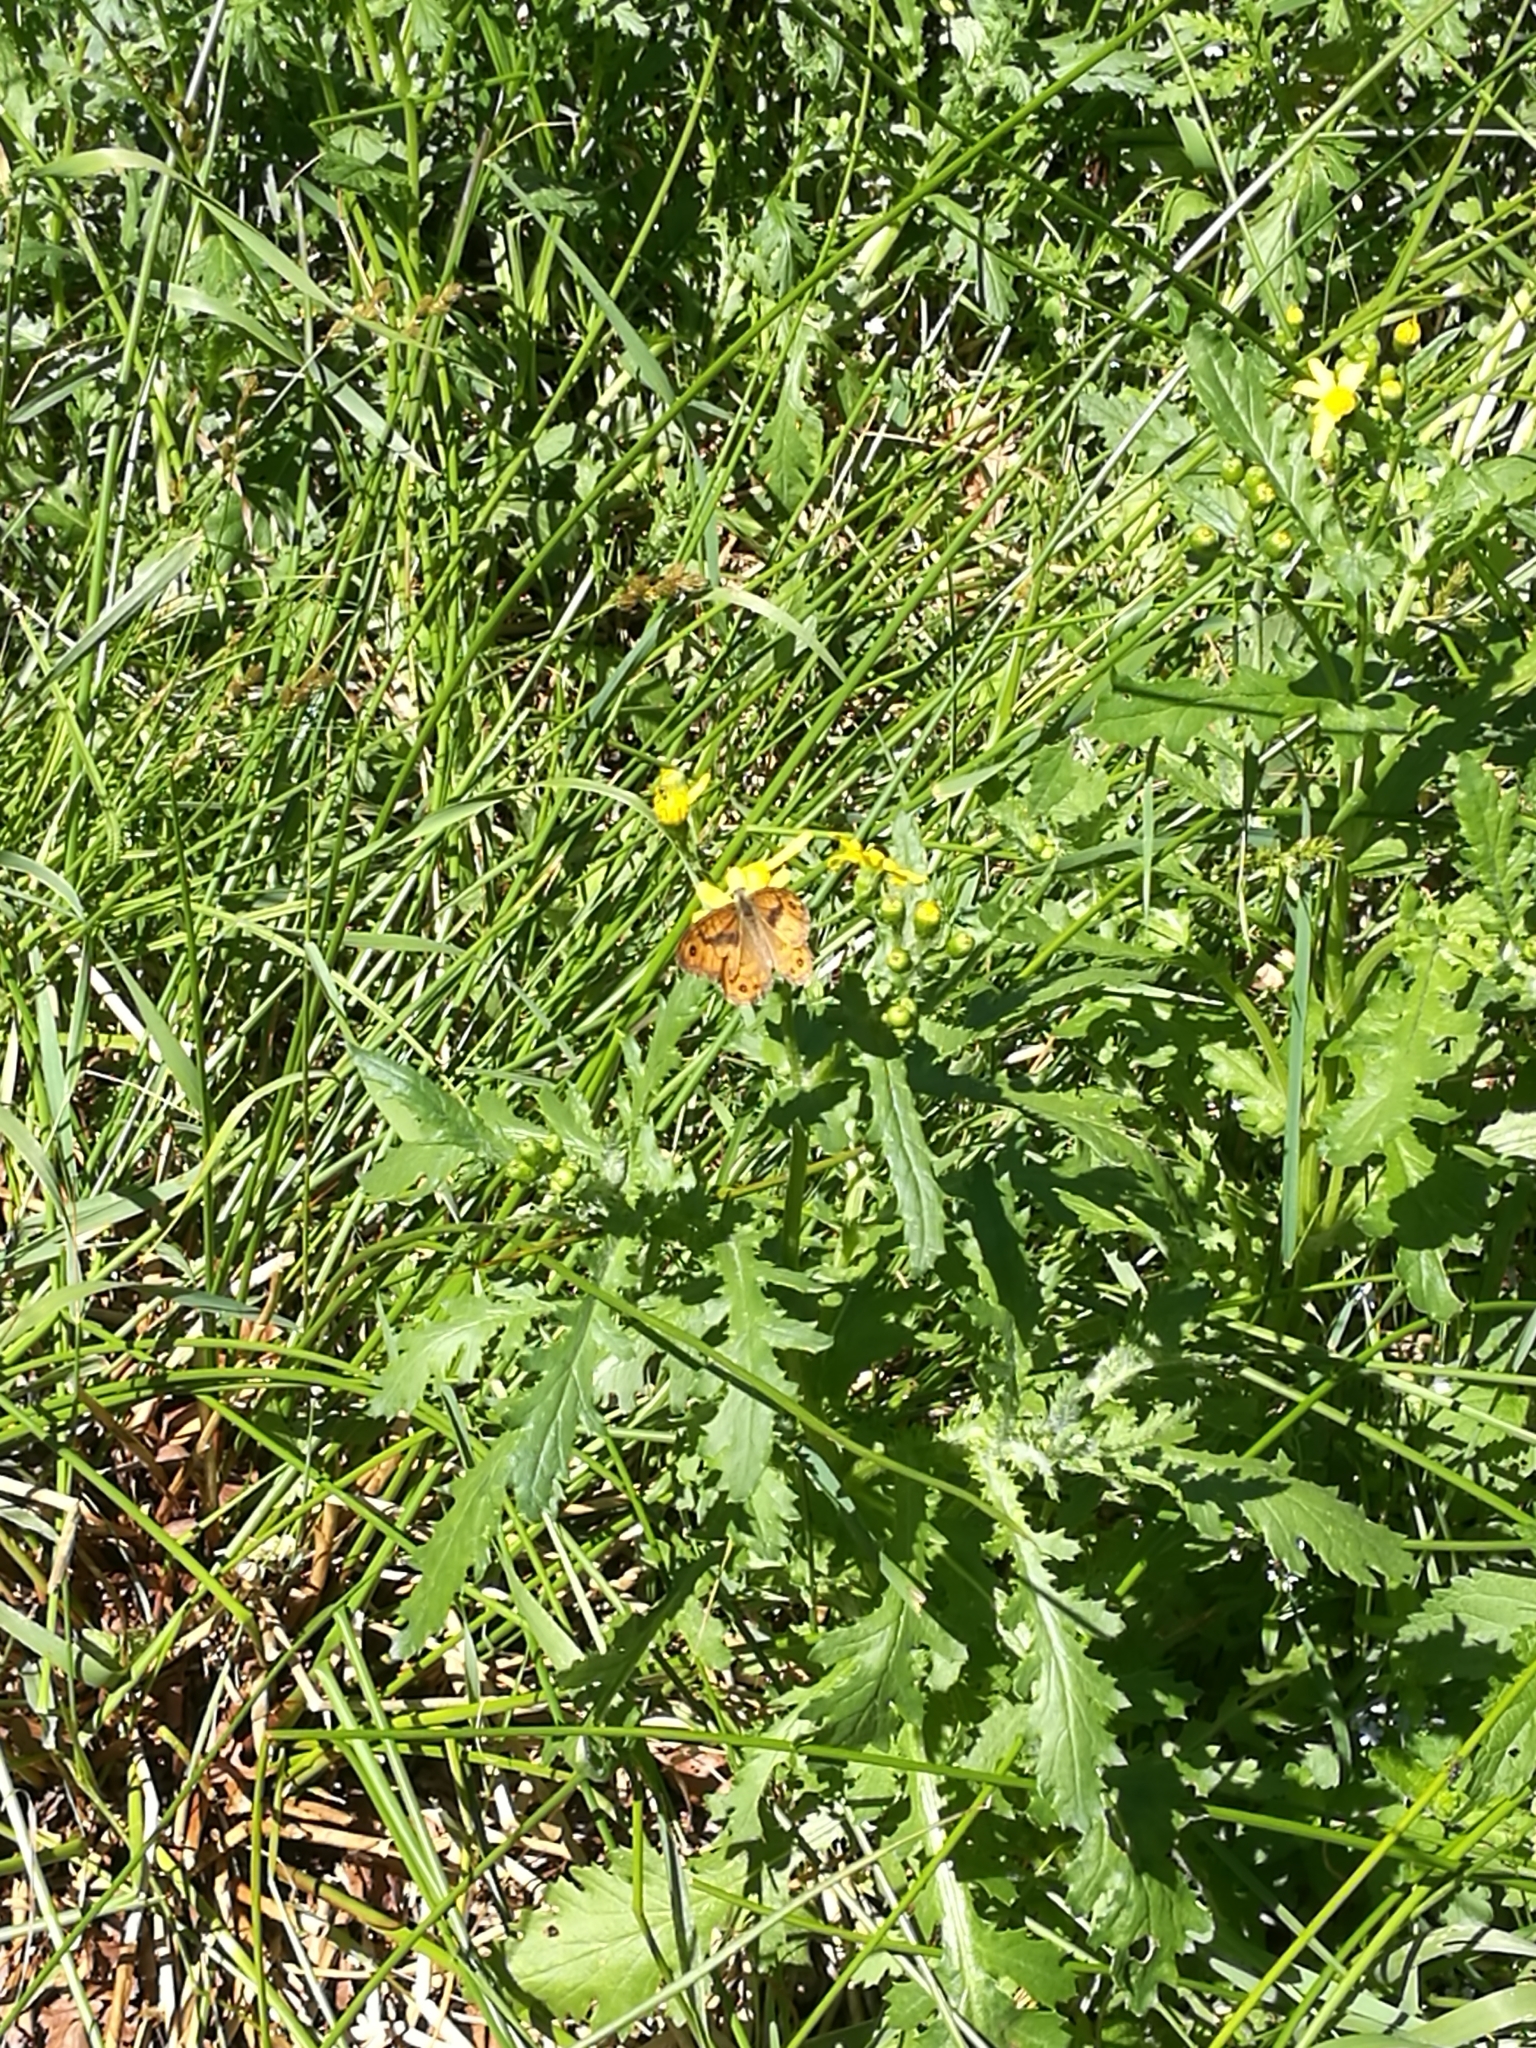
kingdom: Animalia
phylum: Arthropoda
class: Insecta
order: Lepidoptera
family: Nymphalidae
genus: Pararge
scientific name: Pararge Lasiommata megera
